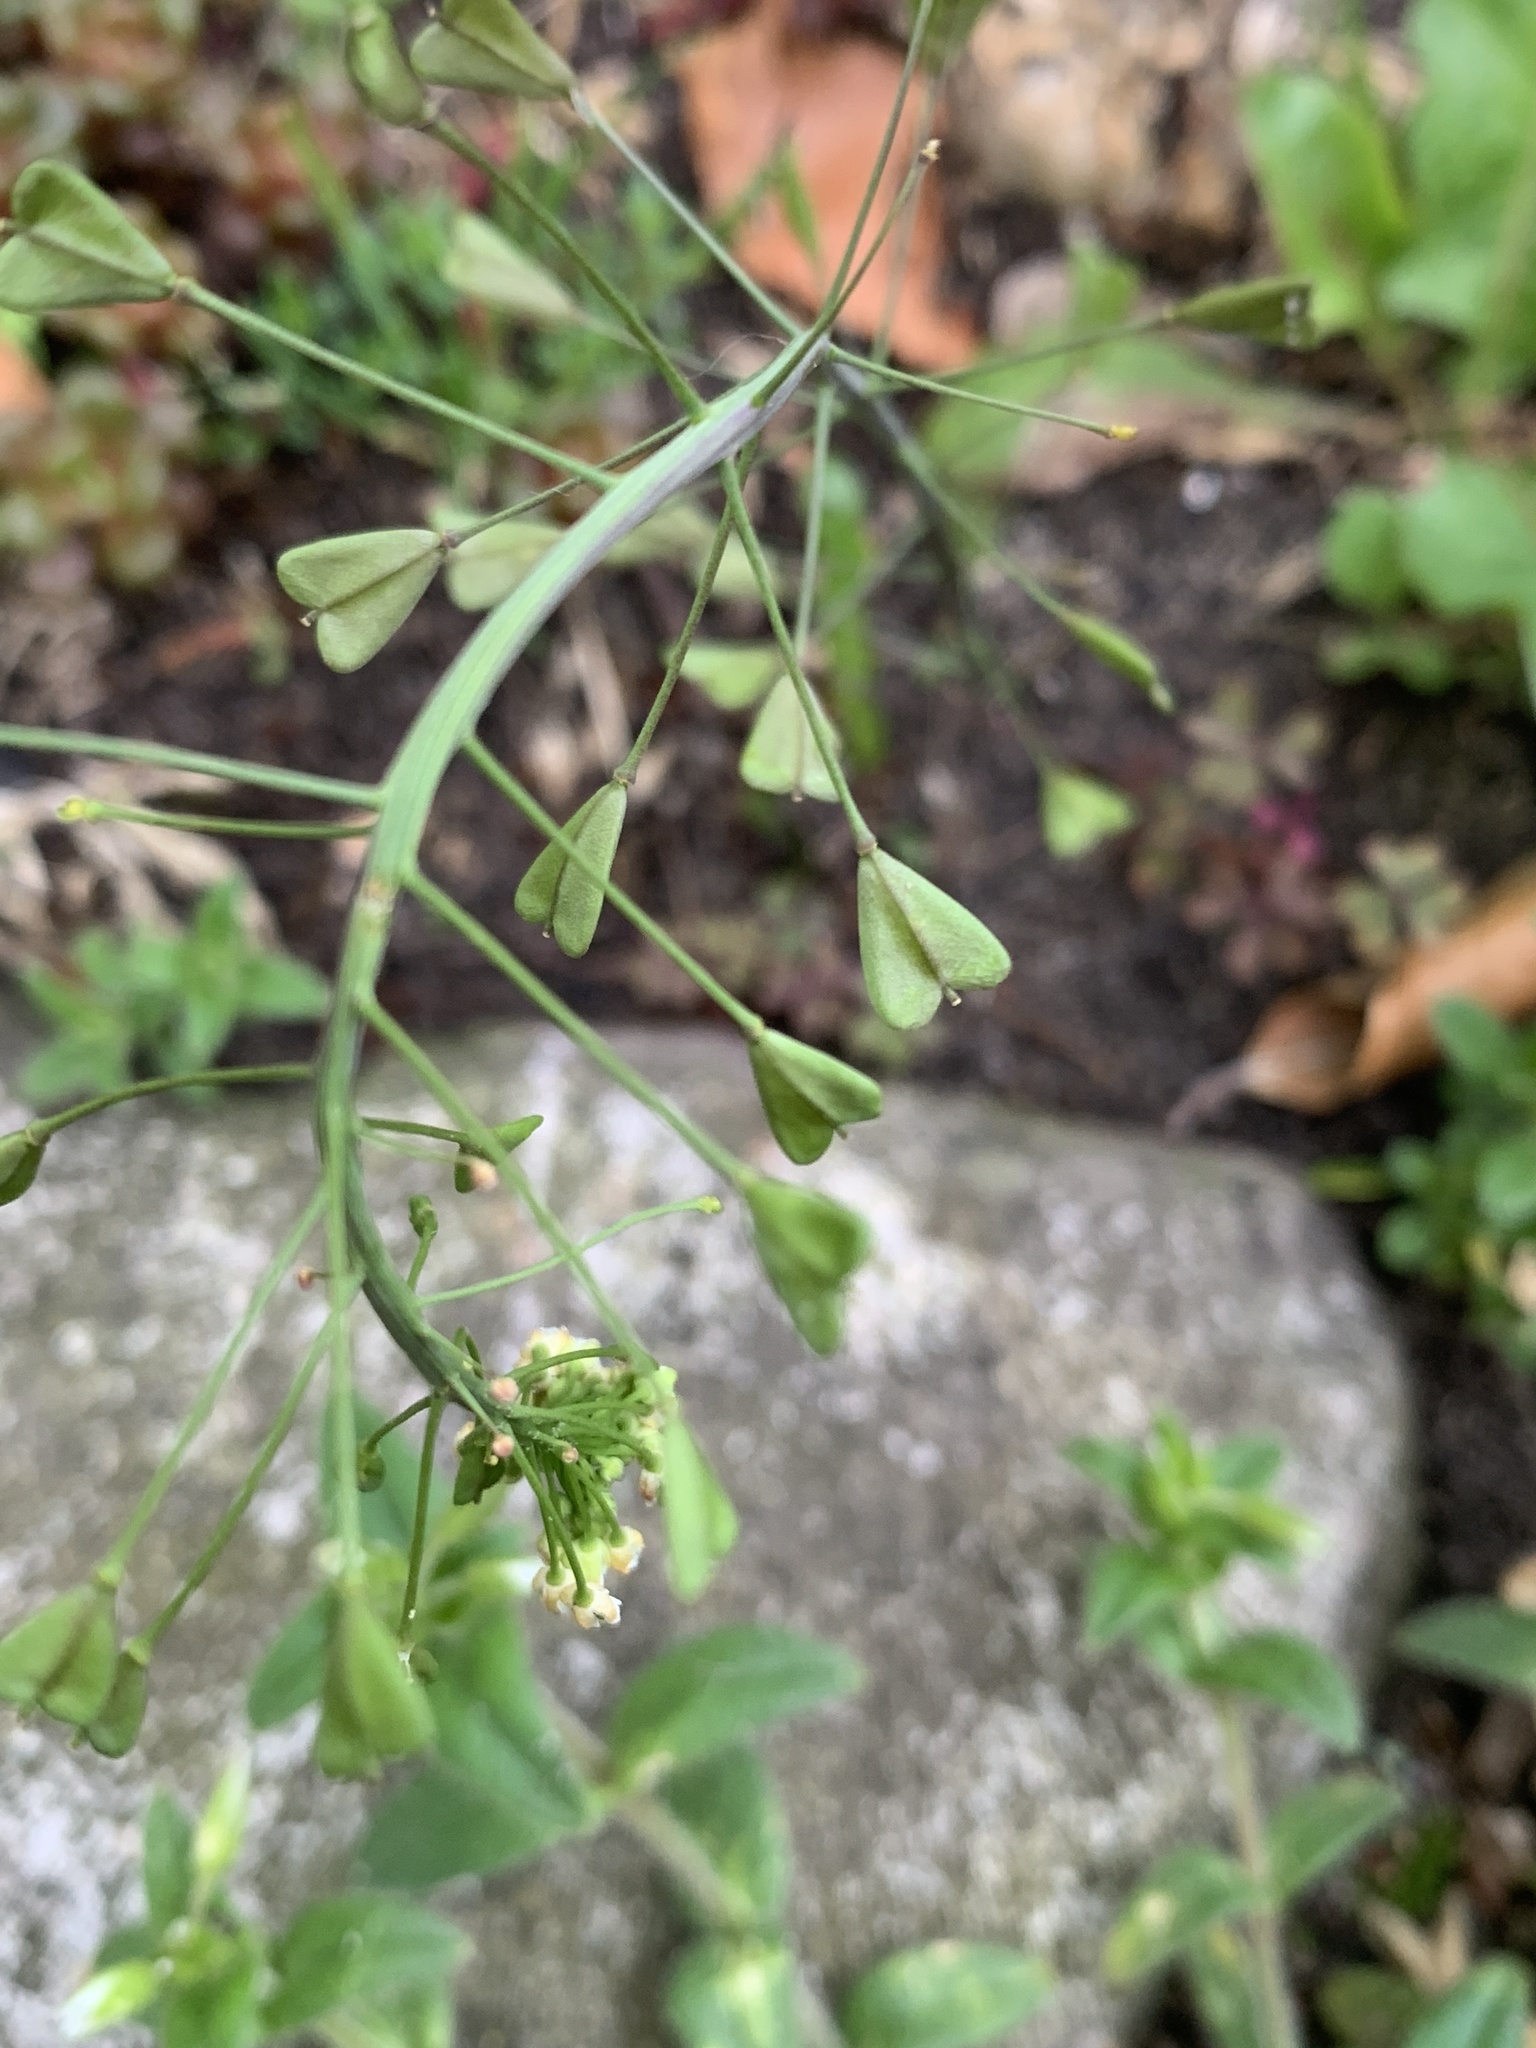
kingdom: Plantae
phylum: Tracheophyta
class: Magnoliopsida
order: Brassicales
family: Brassicaceae
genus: Capsella
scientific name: Capsella bursa-pastoris
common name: Shepherd's purse
